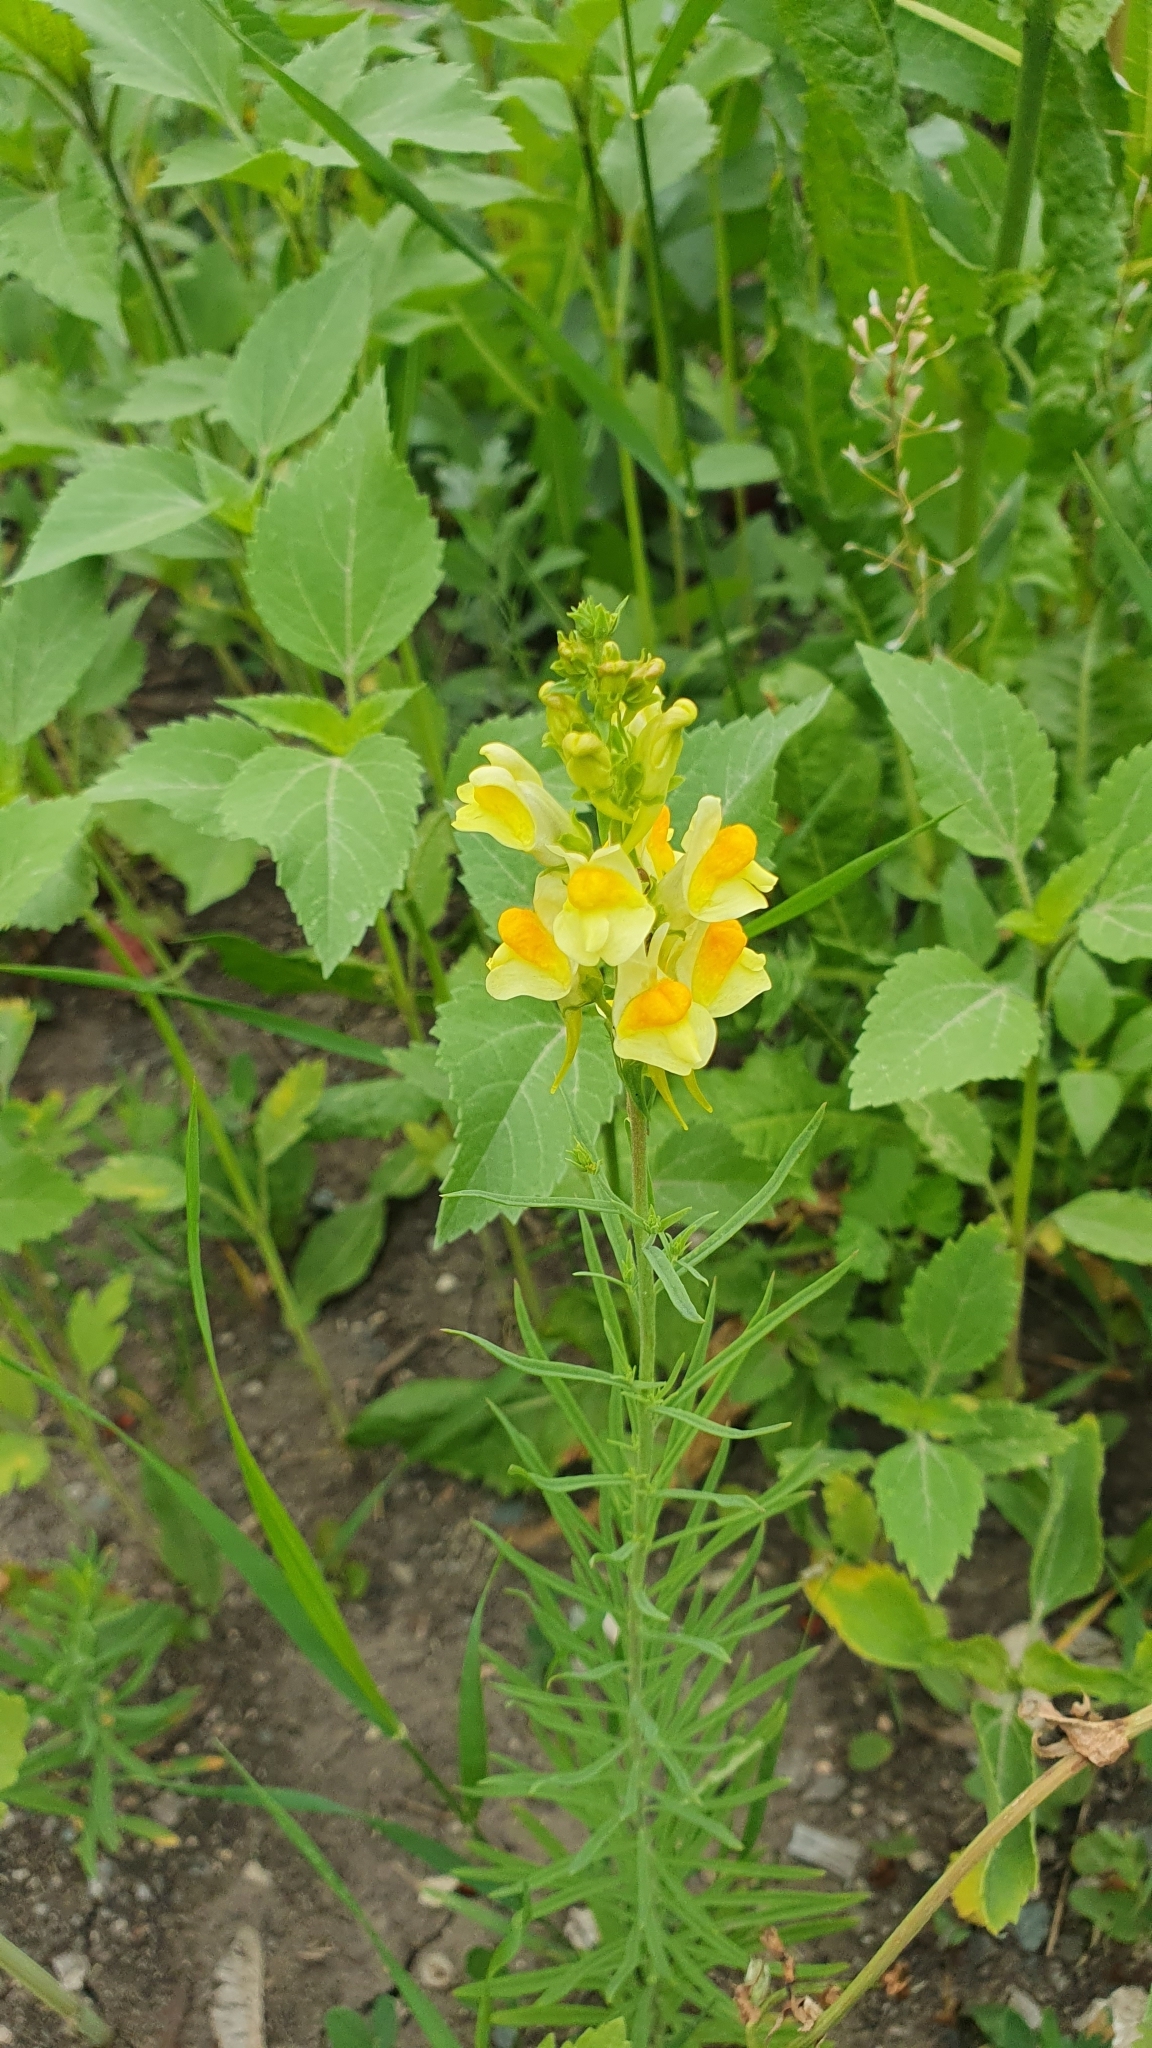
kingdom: Plantae
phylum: Tracheophyta
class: Magnoliopsida
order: Lamiales
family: Plantaginaceae
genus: Linaria
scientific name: Linaria vulgaris
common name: Butter and eggs
